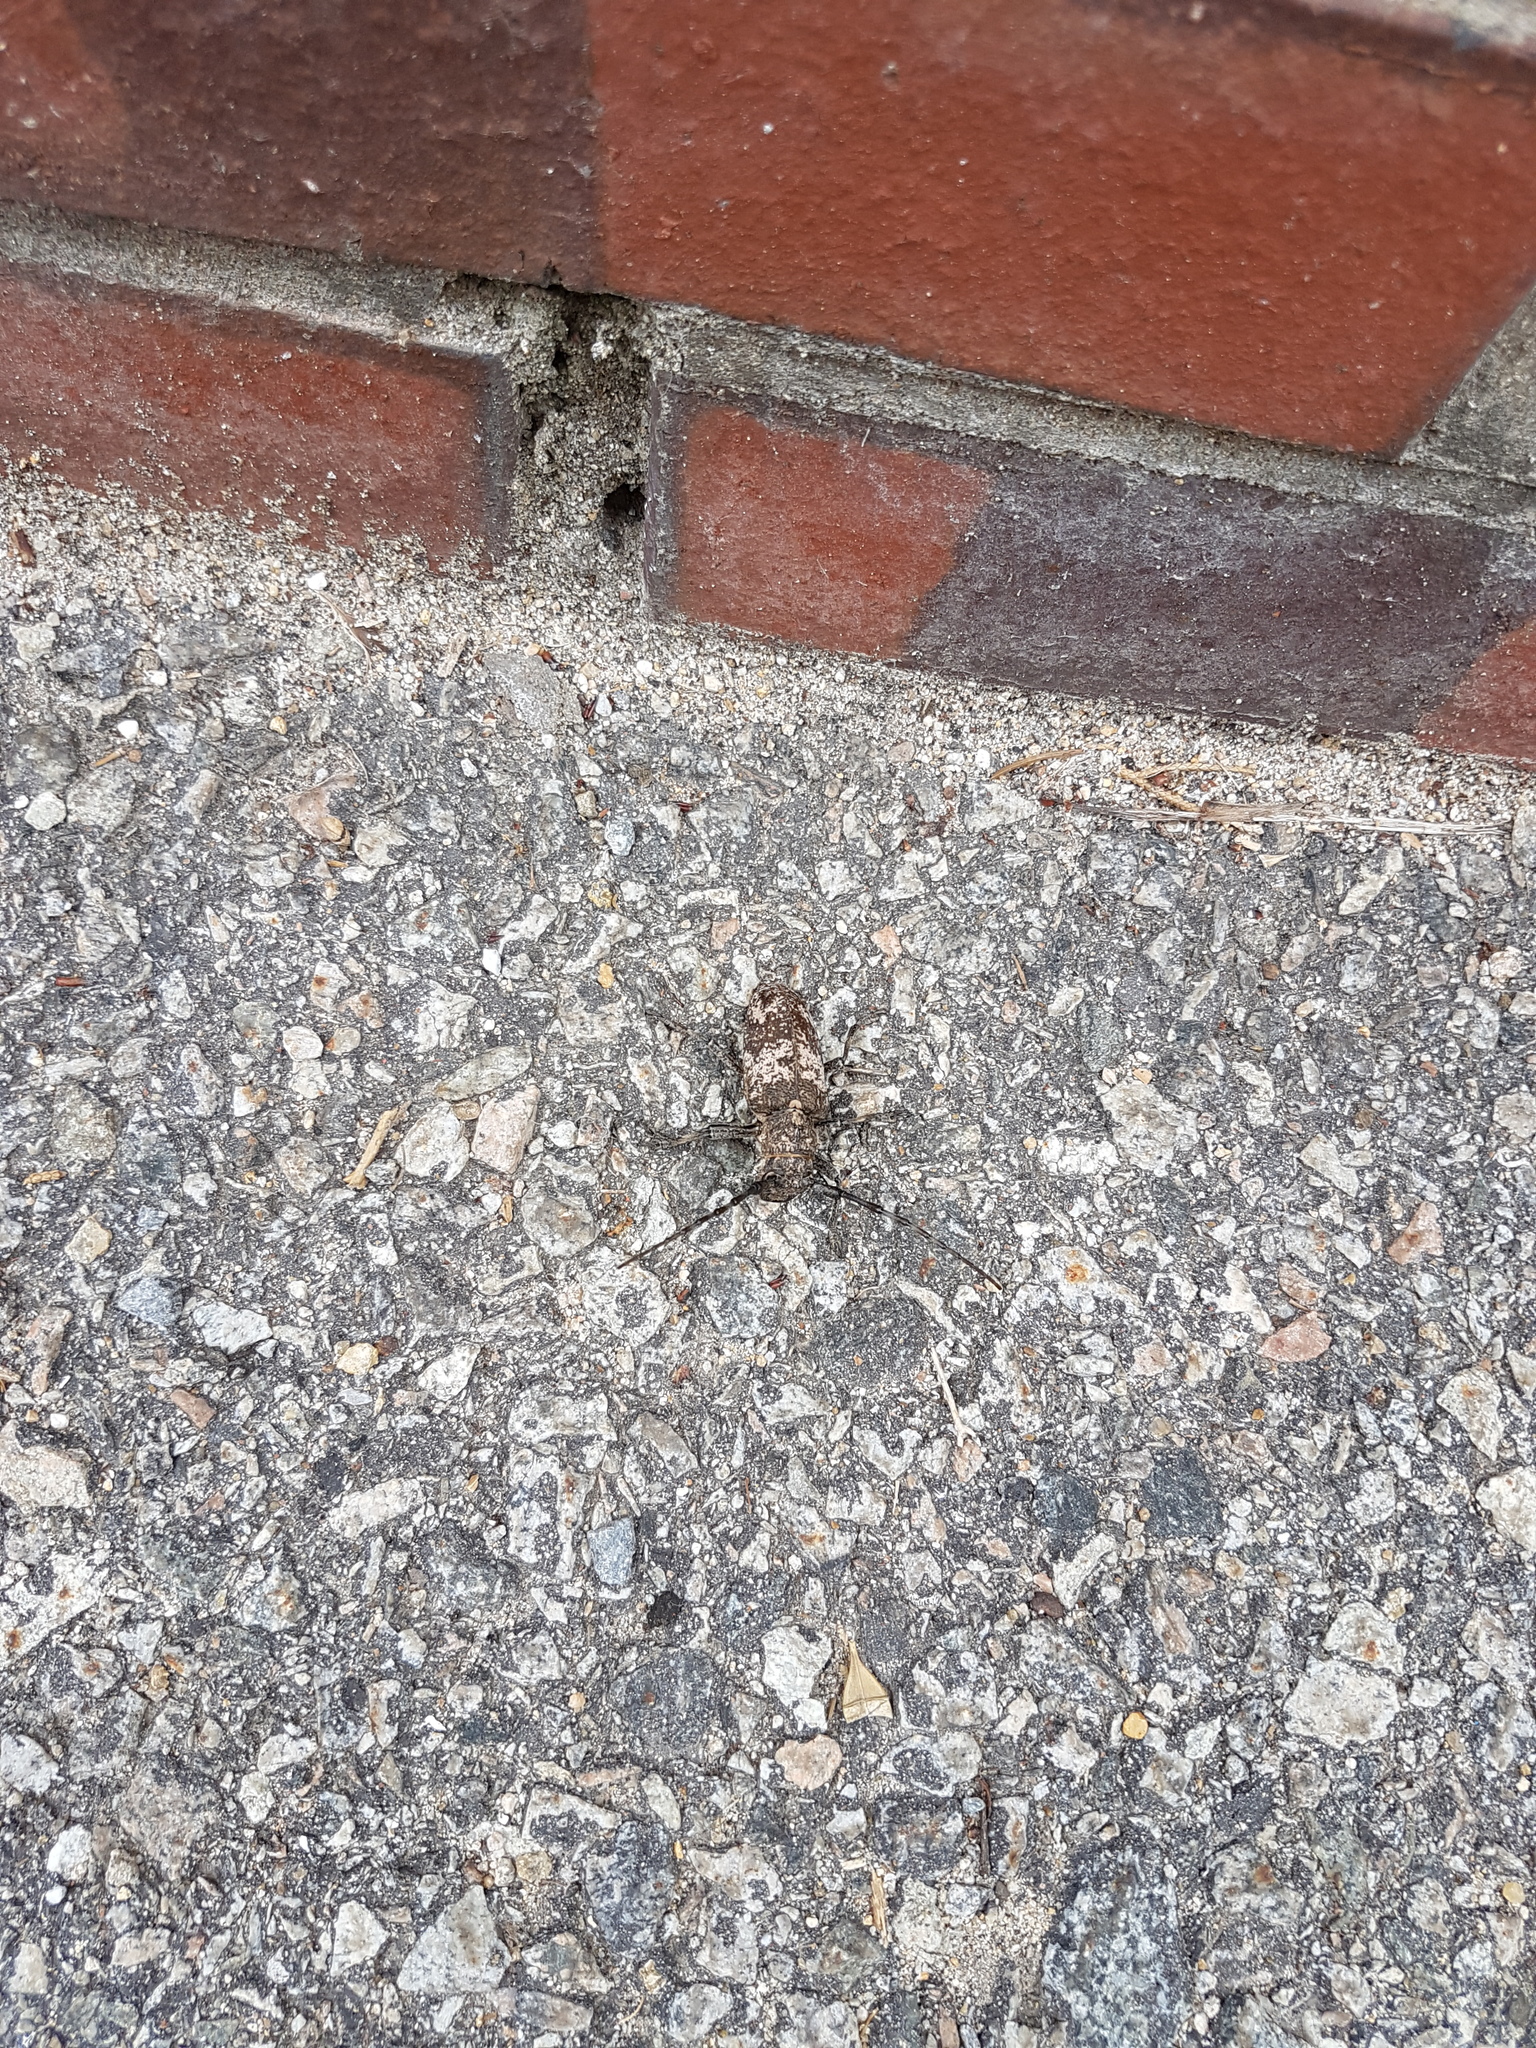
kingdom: Animalia
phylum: Arthropoda
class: Insecta
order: Coleoptera
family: Cerambycidae
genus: Lamiomimus
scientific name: Lamiomimus gottschei
